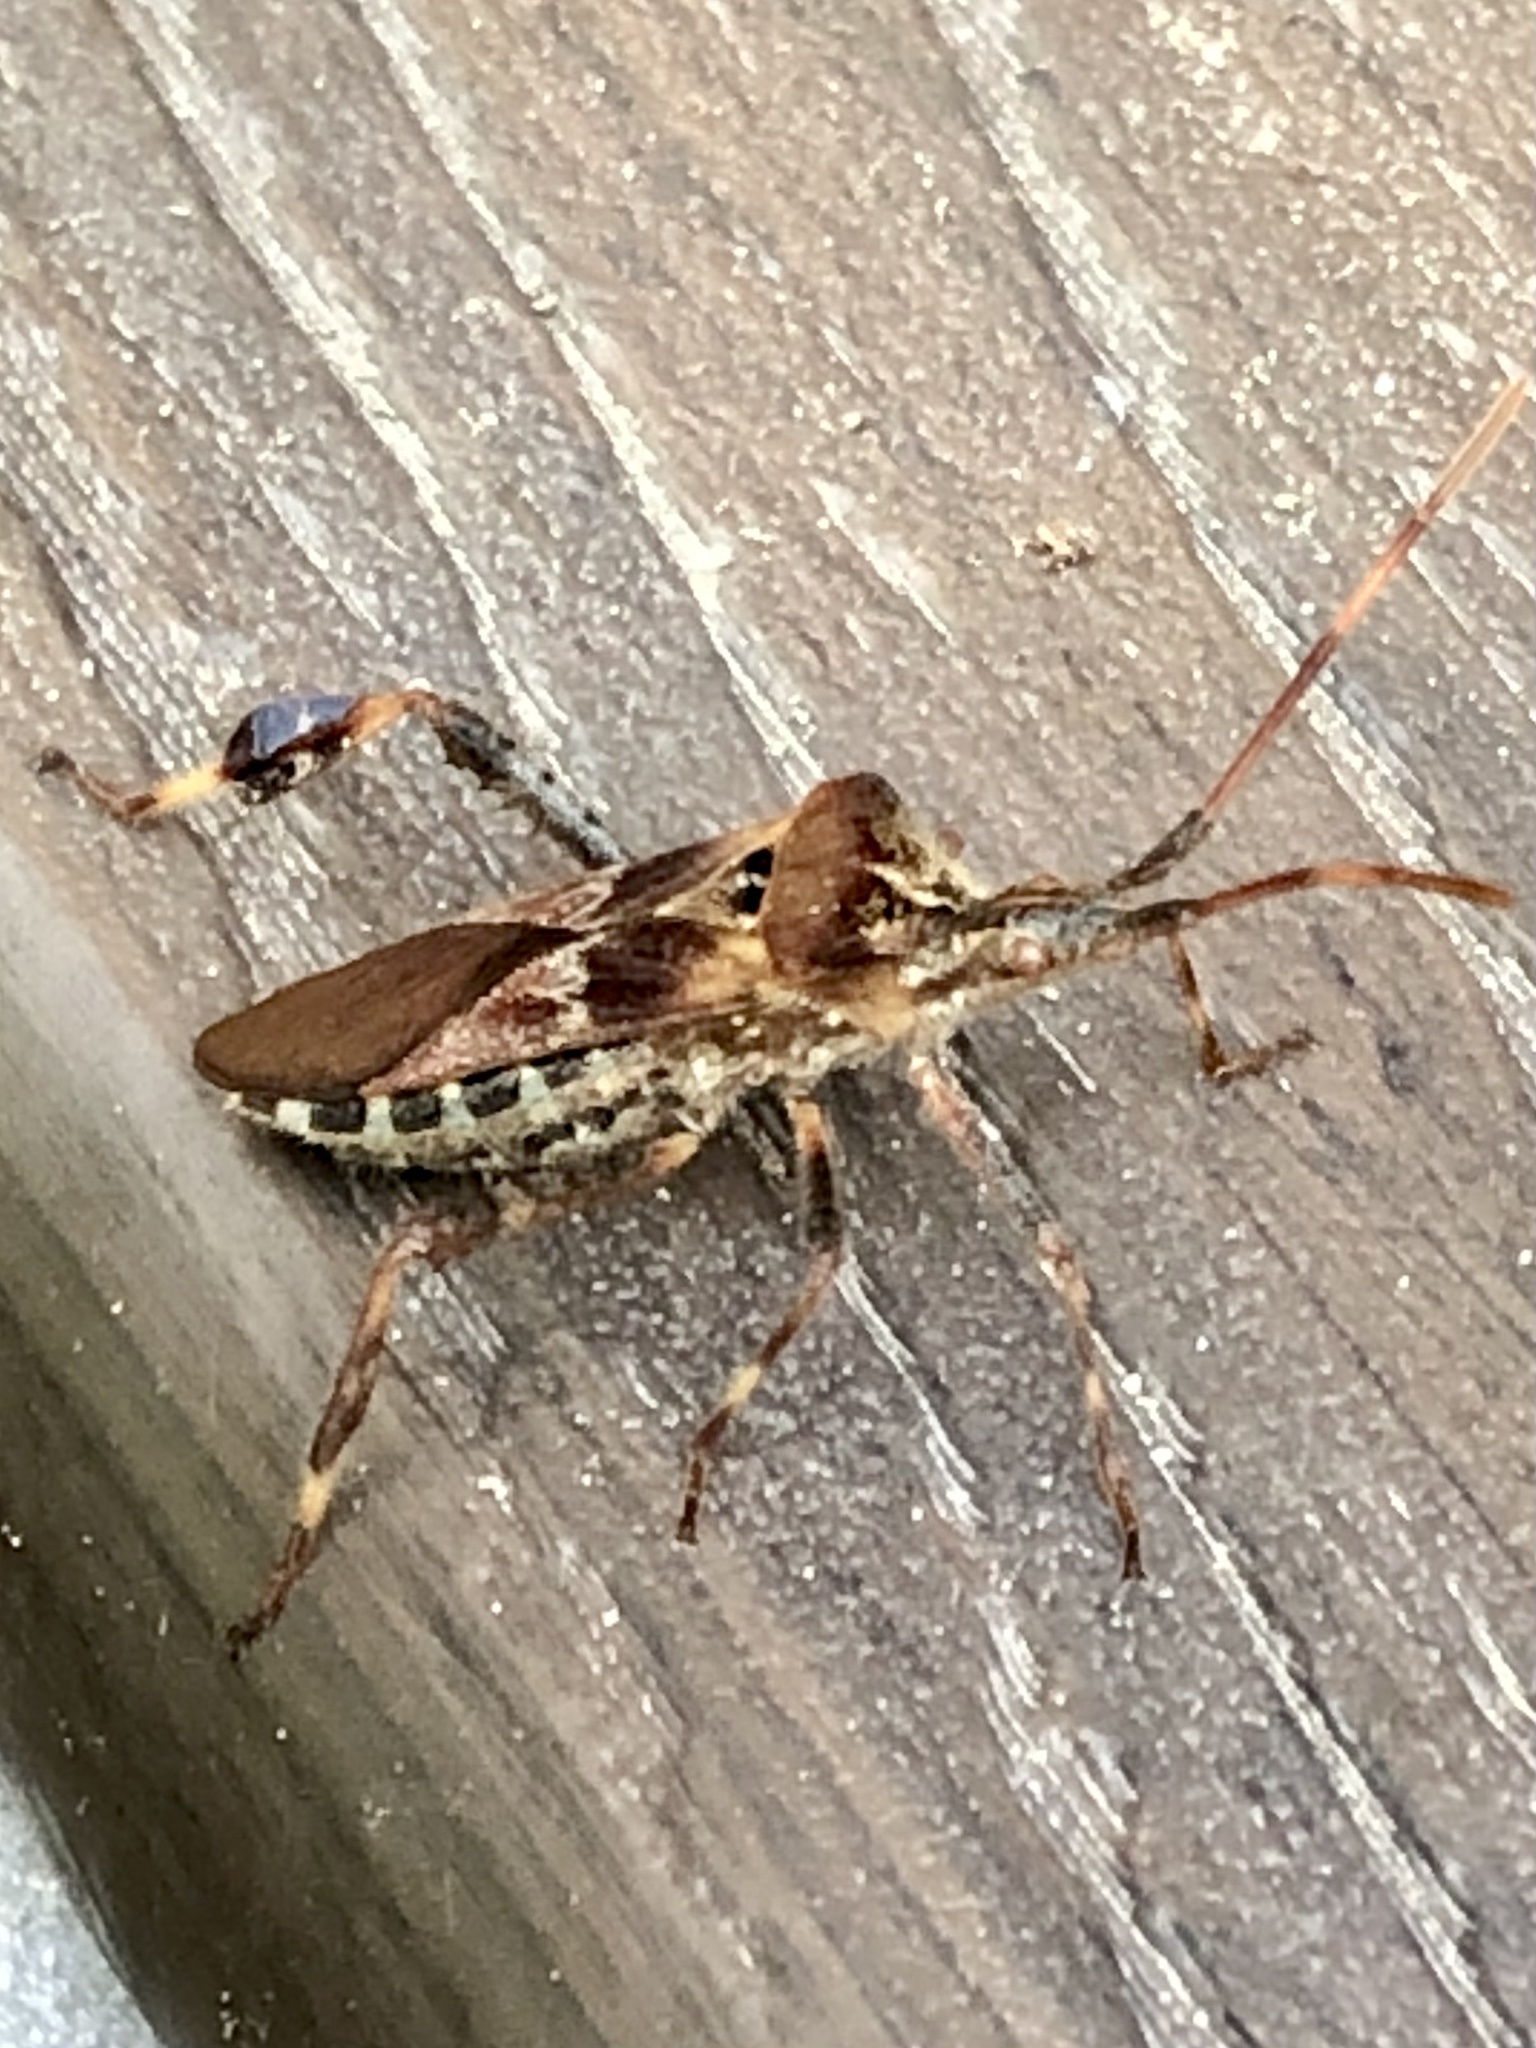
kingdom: Animalia
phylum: Arthropoda
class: Insecta
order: Hemiptera
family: Coreidae
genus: Leptoglossus
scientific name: Leptoglossus occidentalis
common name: Western conifer-seed bug
